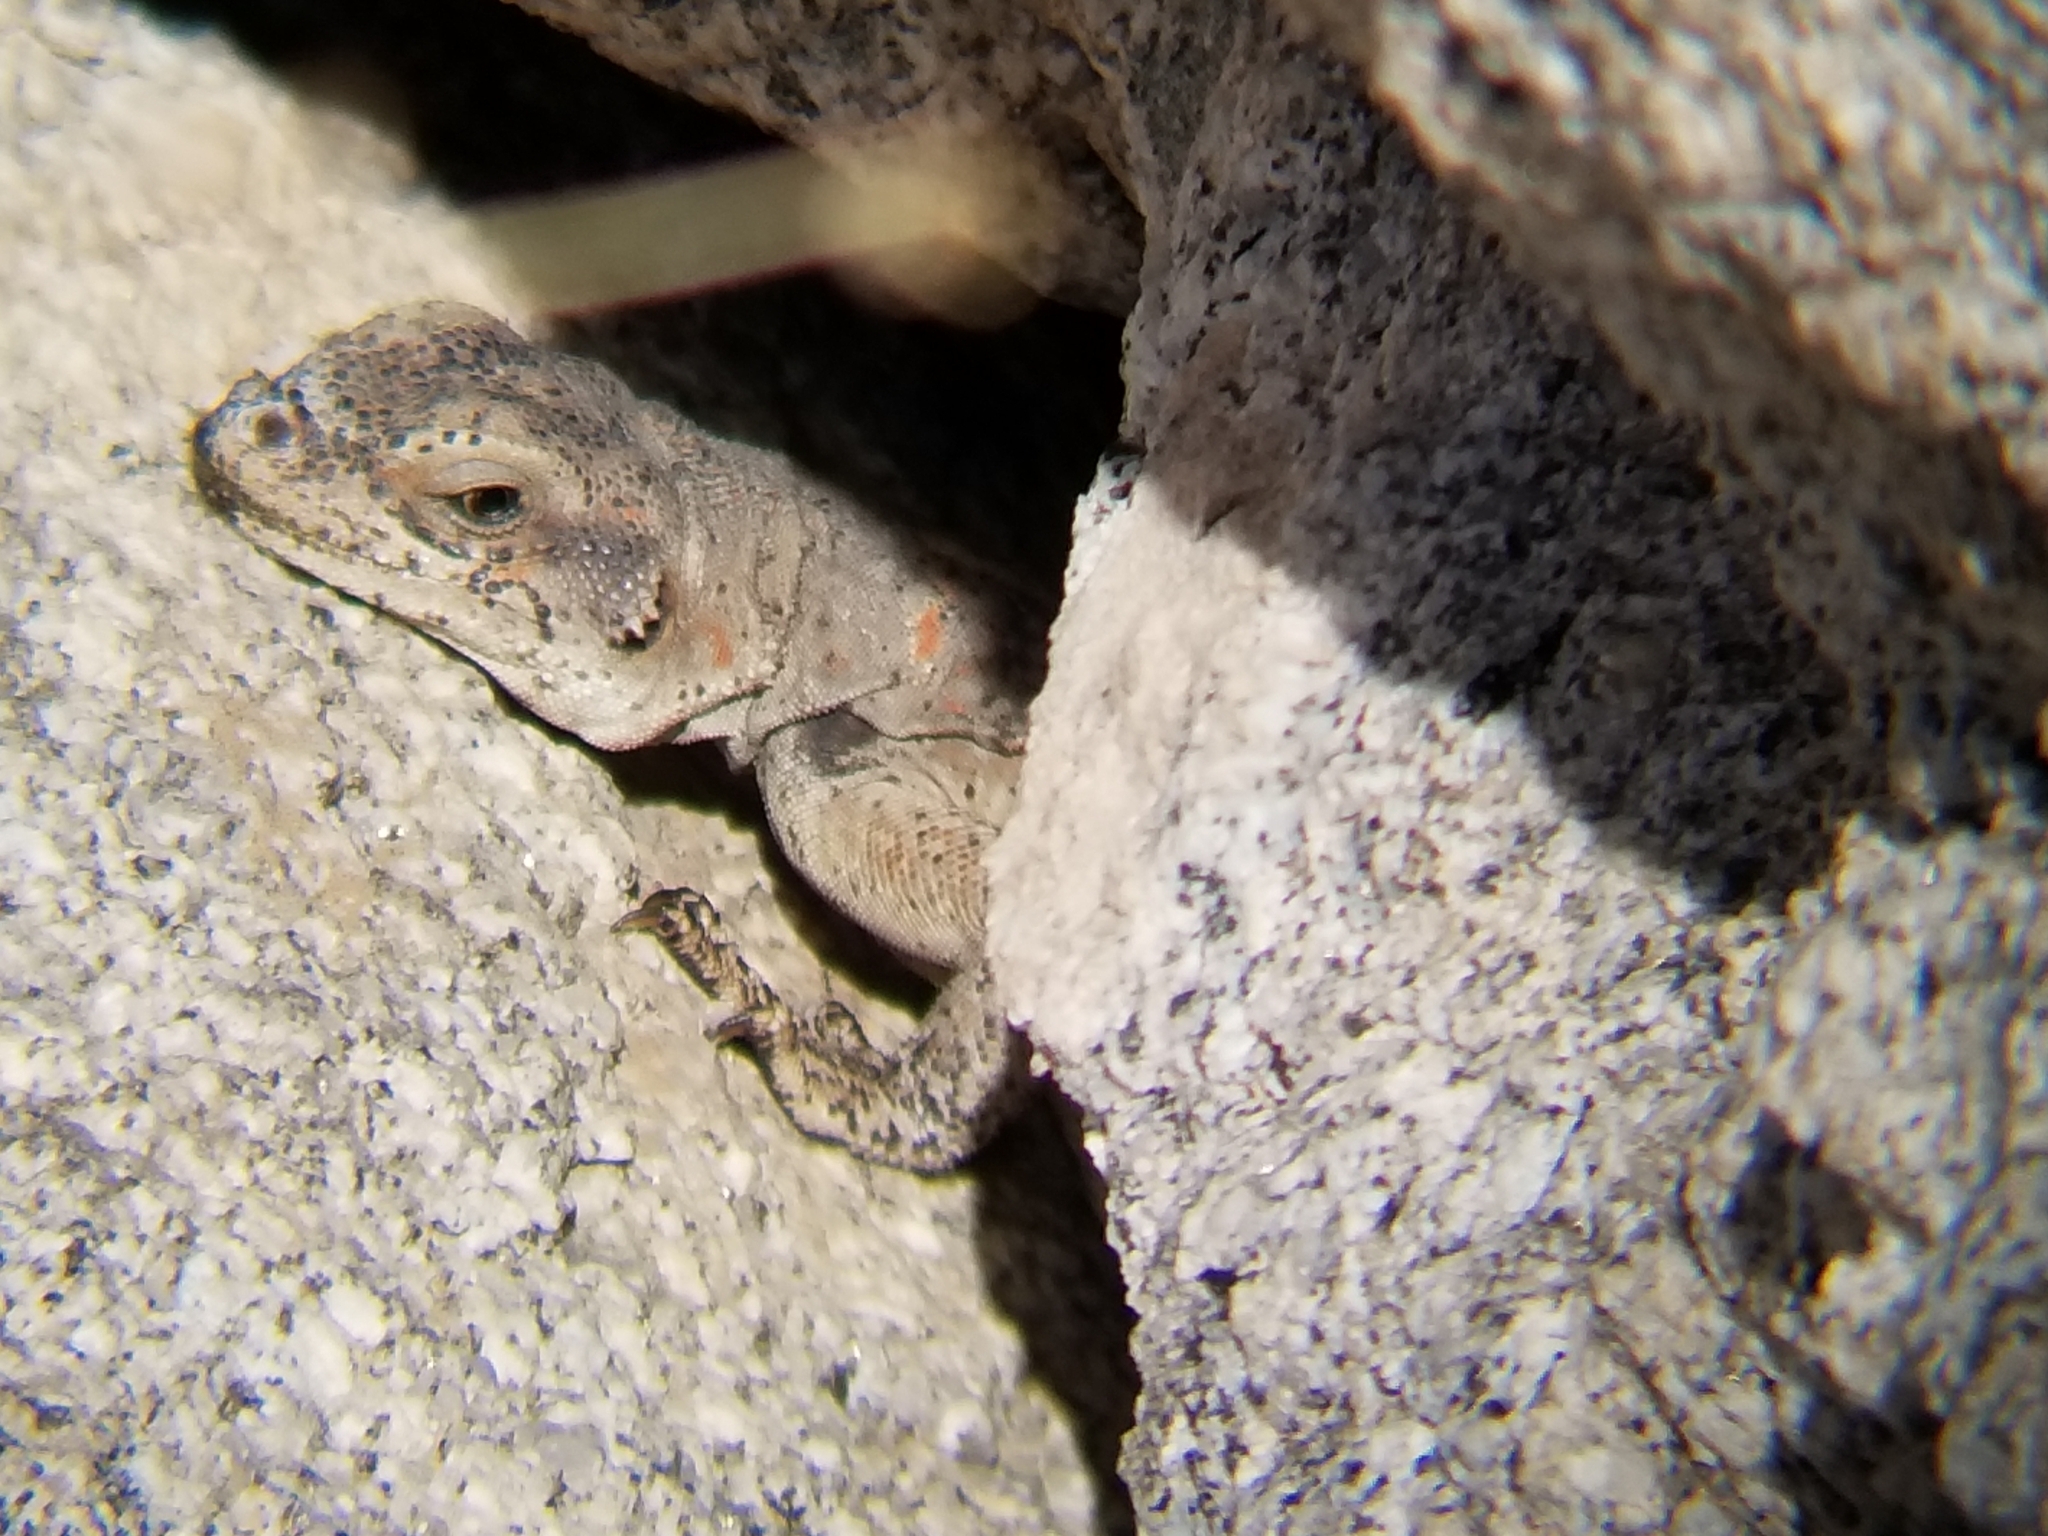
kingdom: Animalia
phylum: Chordata
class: Squamata
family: Iguanidae
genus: Sauromalus
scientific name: Sauromalus ater
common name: Northern chuckwalla
